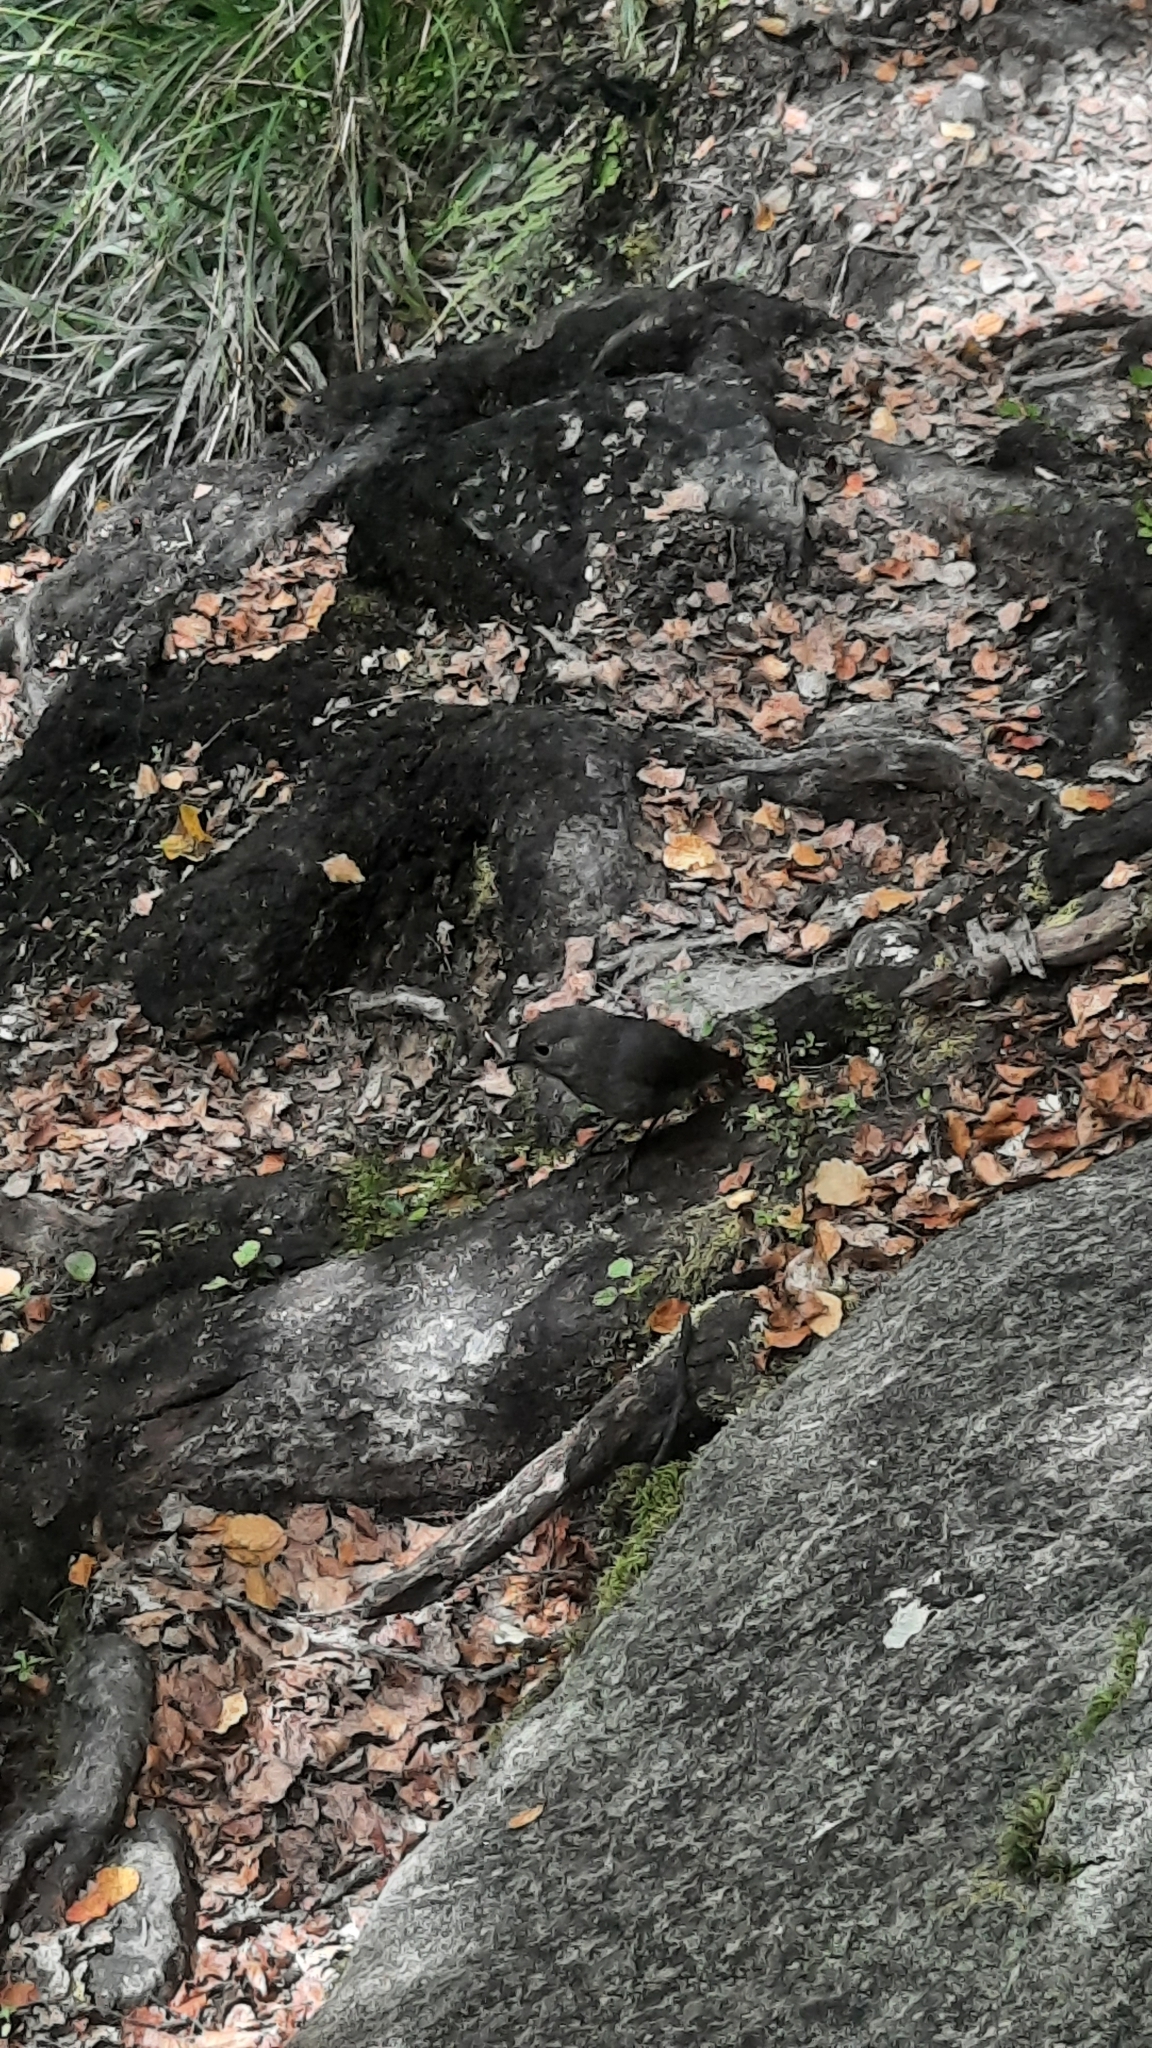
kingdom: Animalia
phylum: Chordata
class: Aves
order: Passeriformes
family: Petroicidae
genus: Petroica
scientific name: Petroica australis
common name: New zealand robin
